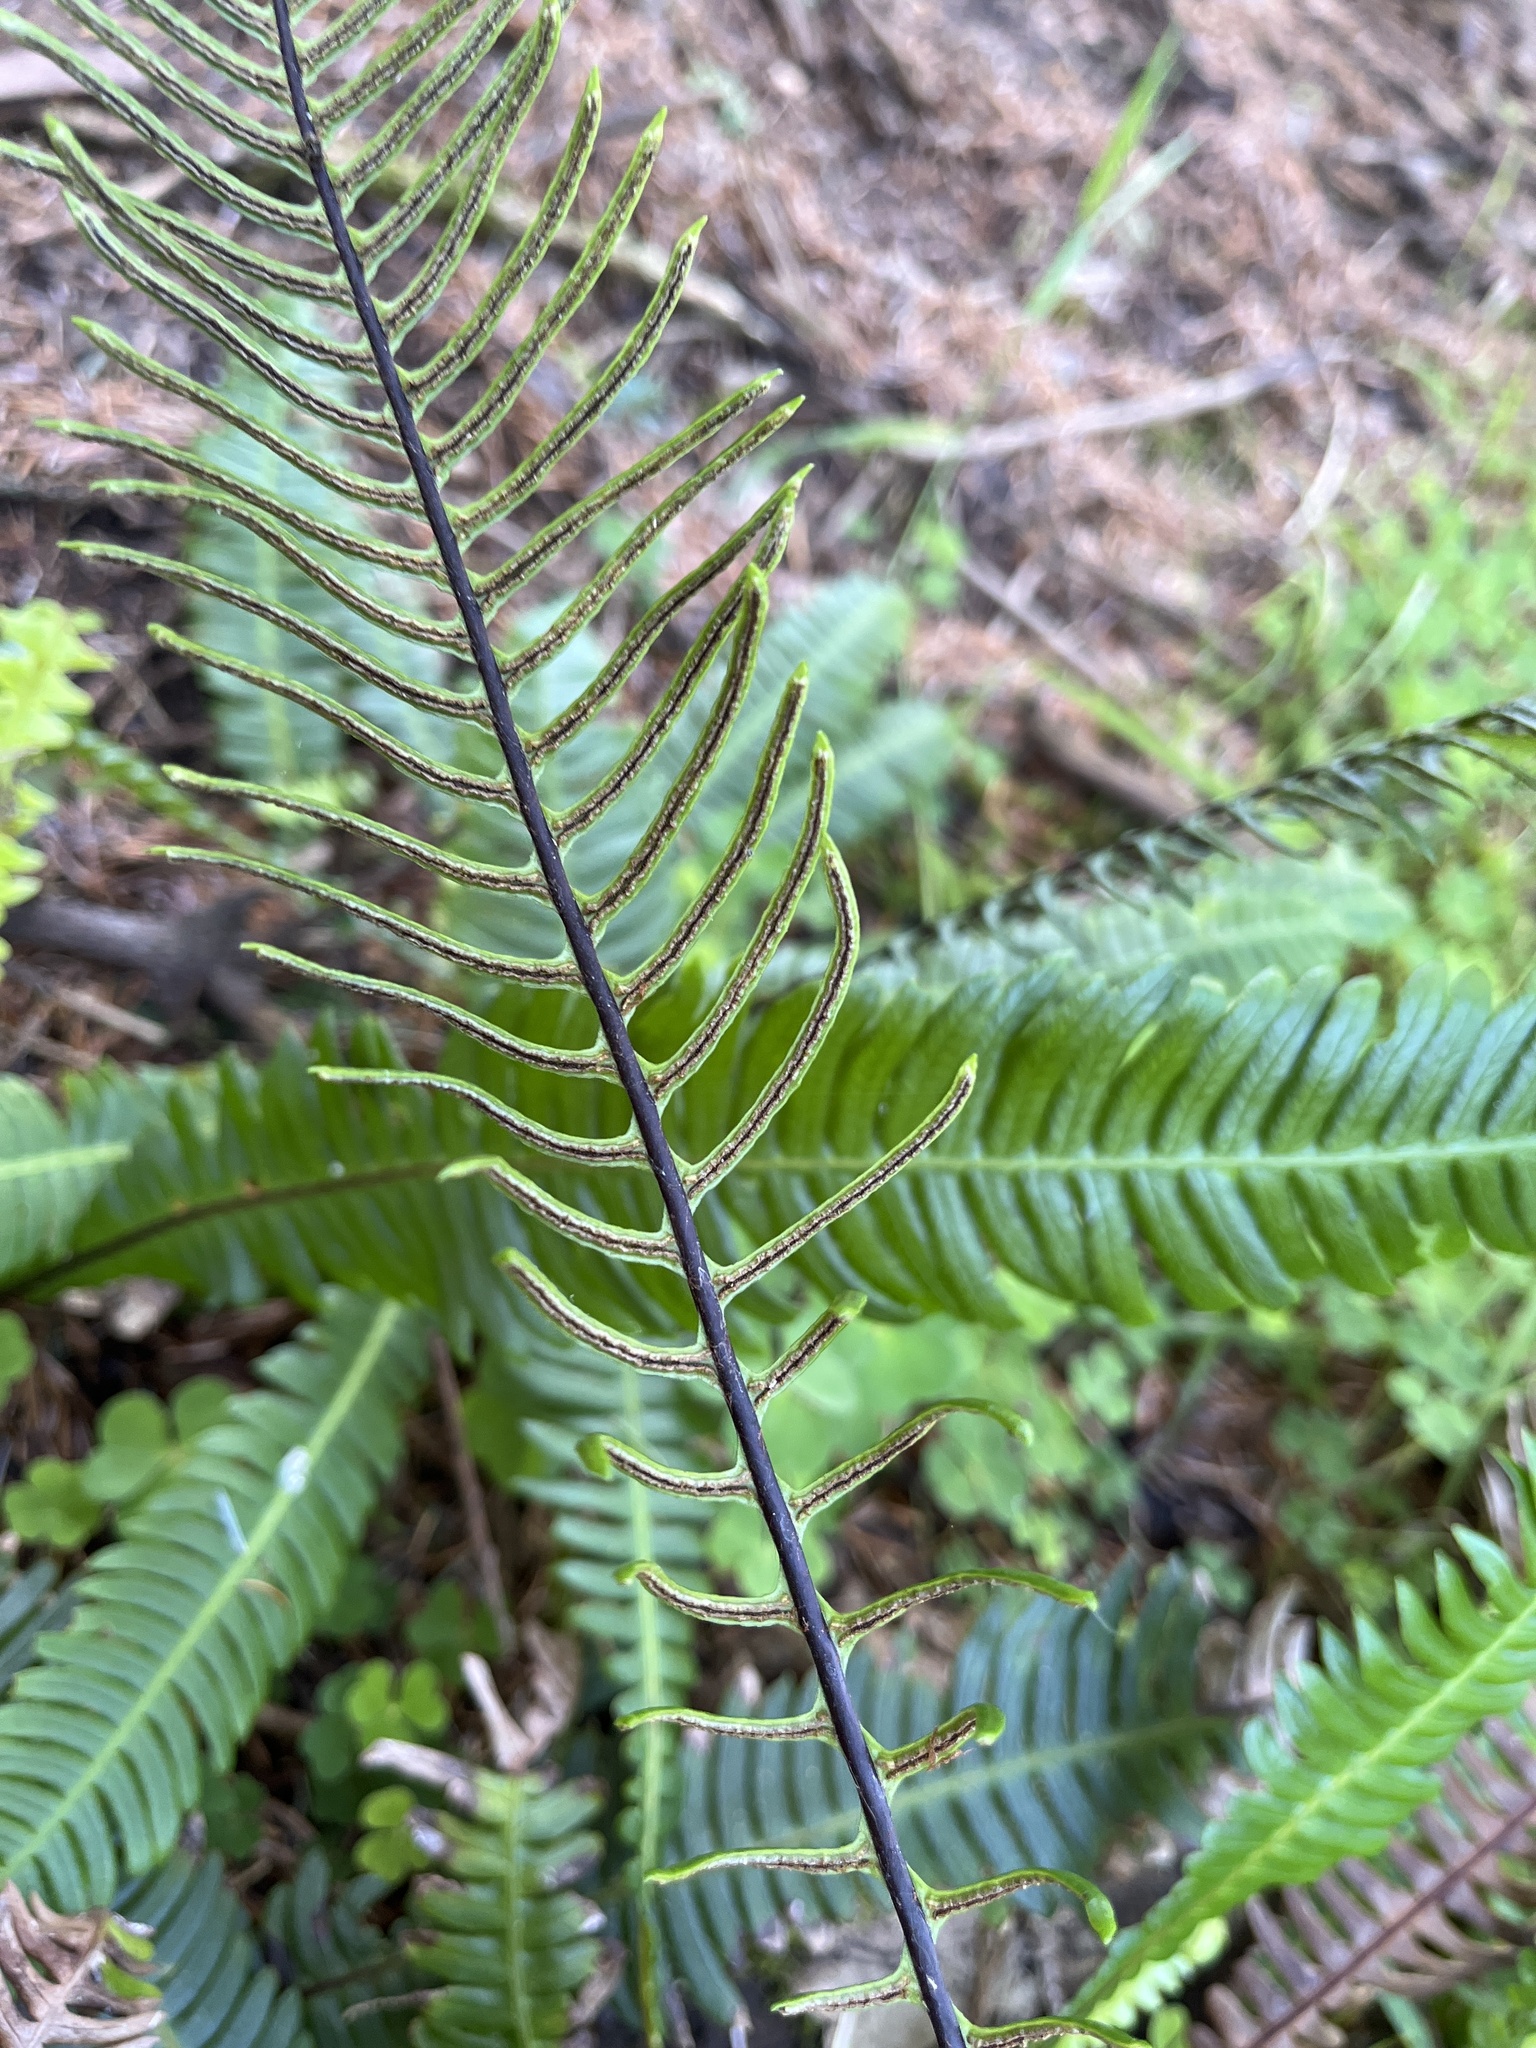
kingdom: Plantae
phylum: Tracheophyta
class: Polypodiopsida
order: Polypodiales
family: Blechnaceae
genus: Struthiopteris
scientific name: Struthiopteris spicant
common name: Deer fern
